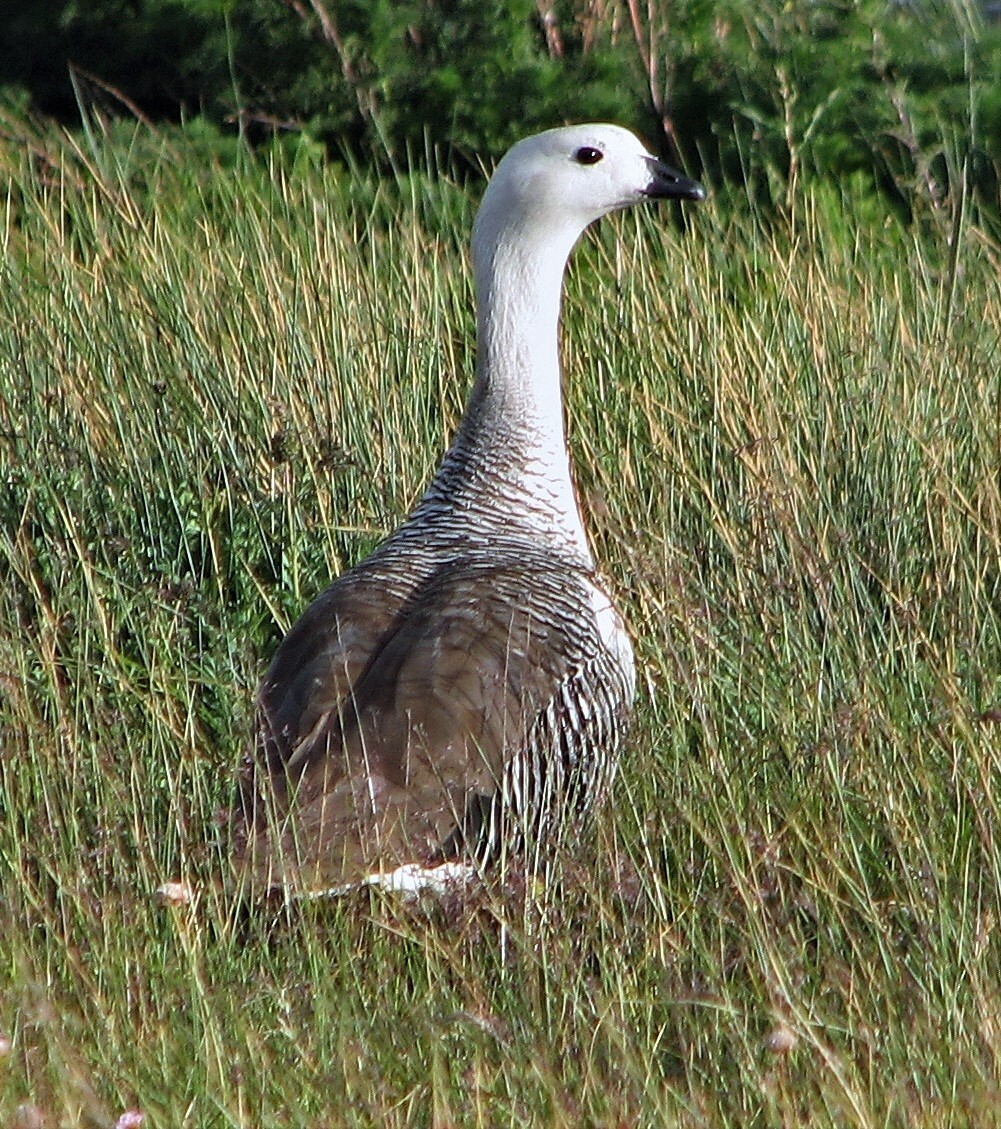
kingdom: Animalia
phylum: Chordata
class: Aves
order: Anseriformes
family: Anatidae
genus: Chloephaga
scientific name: Chloephaga picta
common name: Upland goose
